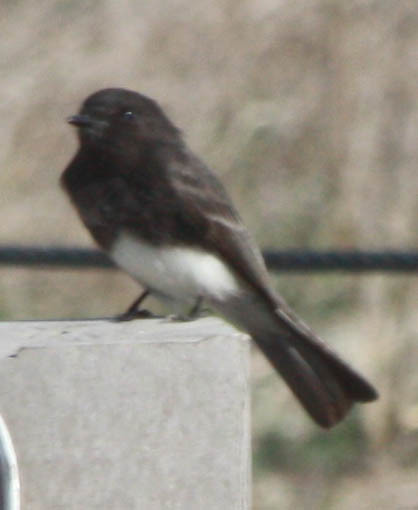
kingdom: Animalia
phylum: Chordata
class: Aves
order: Passeriformes
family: Tyrannidae
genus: Sayornis
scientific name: Sayornis nigricans
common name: Black phoebe
